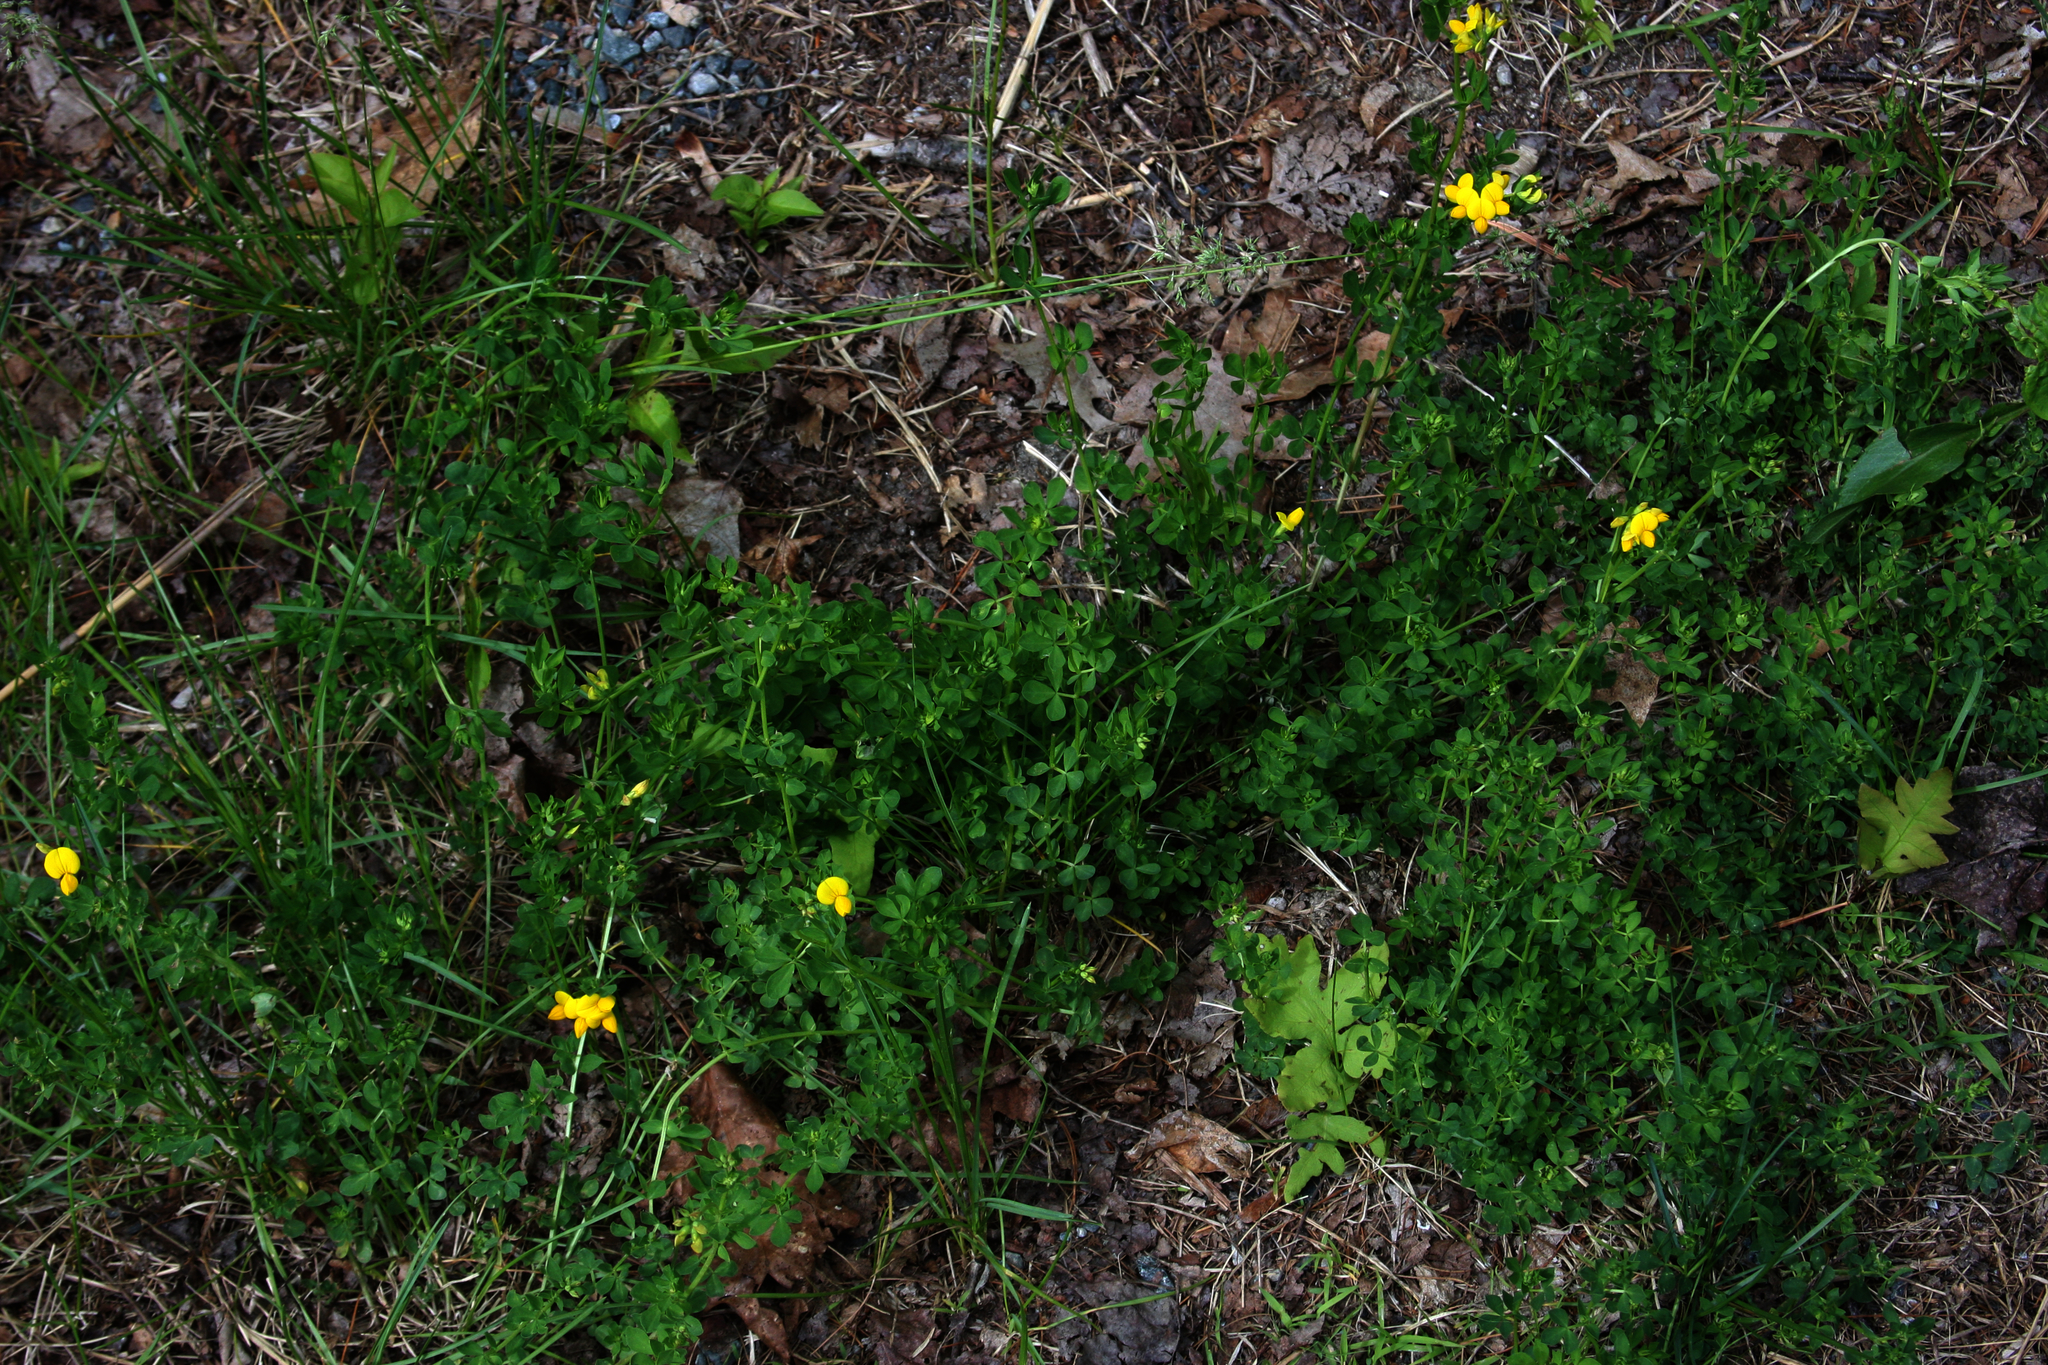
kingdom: Plantae
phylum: Tracheophyta
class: Magnoliopsida
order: Fabales
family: Fabaceae
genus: Lotus
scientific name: Lotus corniculatus
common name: Common bird's-foot-trefoil
